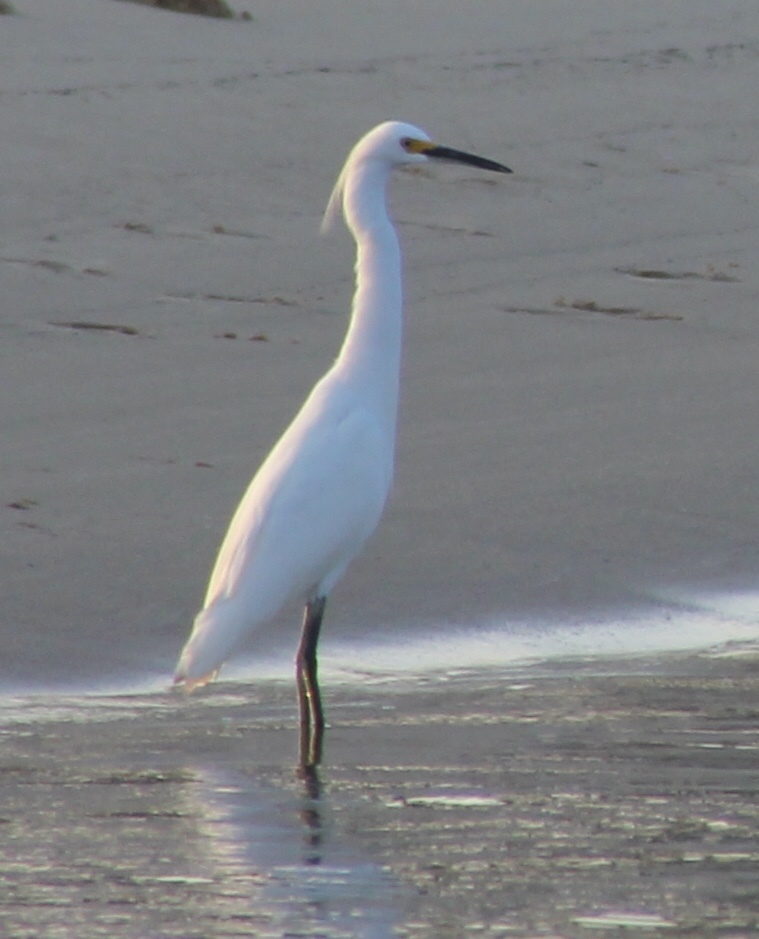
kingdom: Animalia
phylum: Chordata
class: Aves
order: Pelecaniformes
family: Ardeidae
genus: Egretta
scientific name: Egretta thula
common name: Snowy egret
